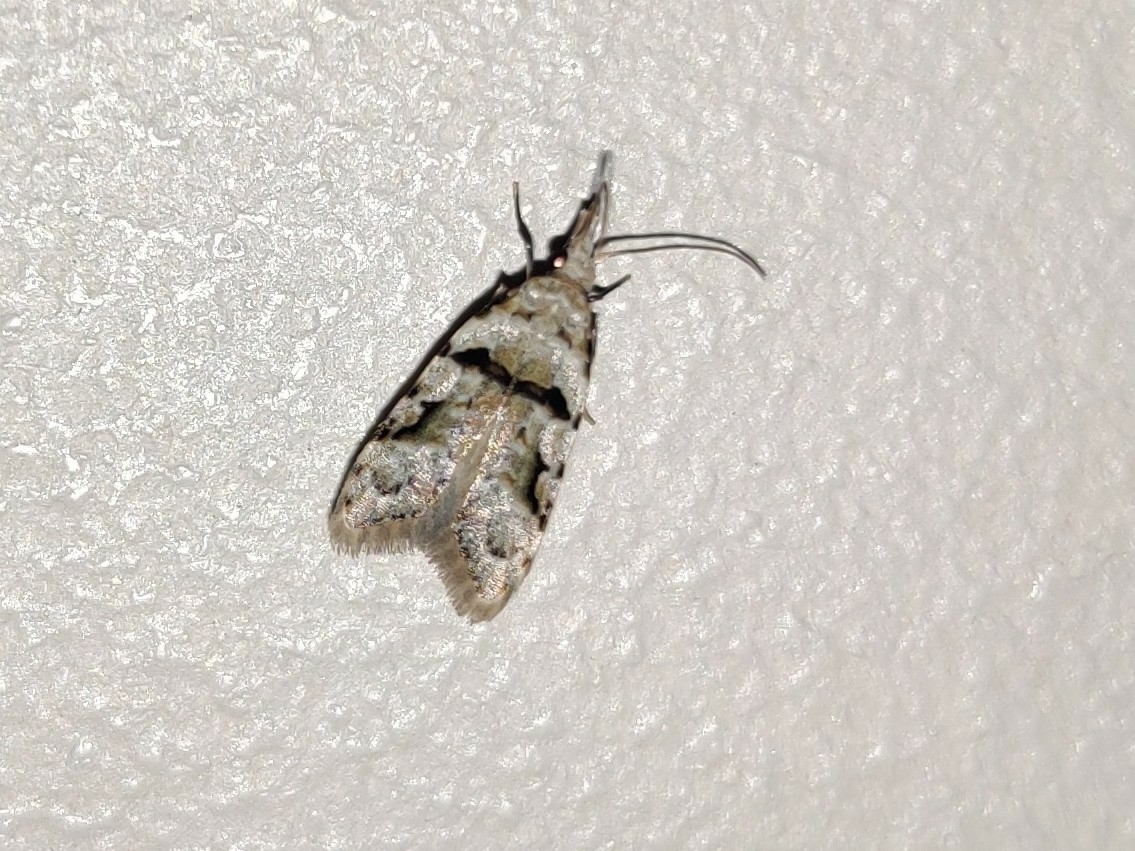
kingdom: Animalia
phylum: Arthropoda
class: Insecta
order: Lepidoptera
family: Carposinidae
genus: Coscinoptycha
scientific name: Coscinoptycha improbana
